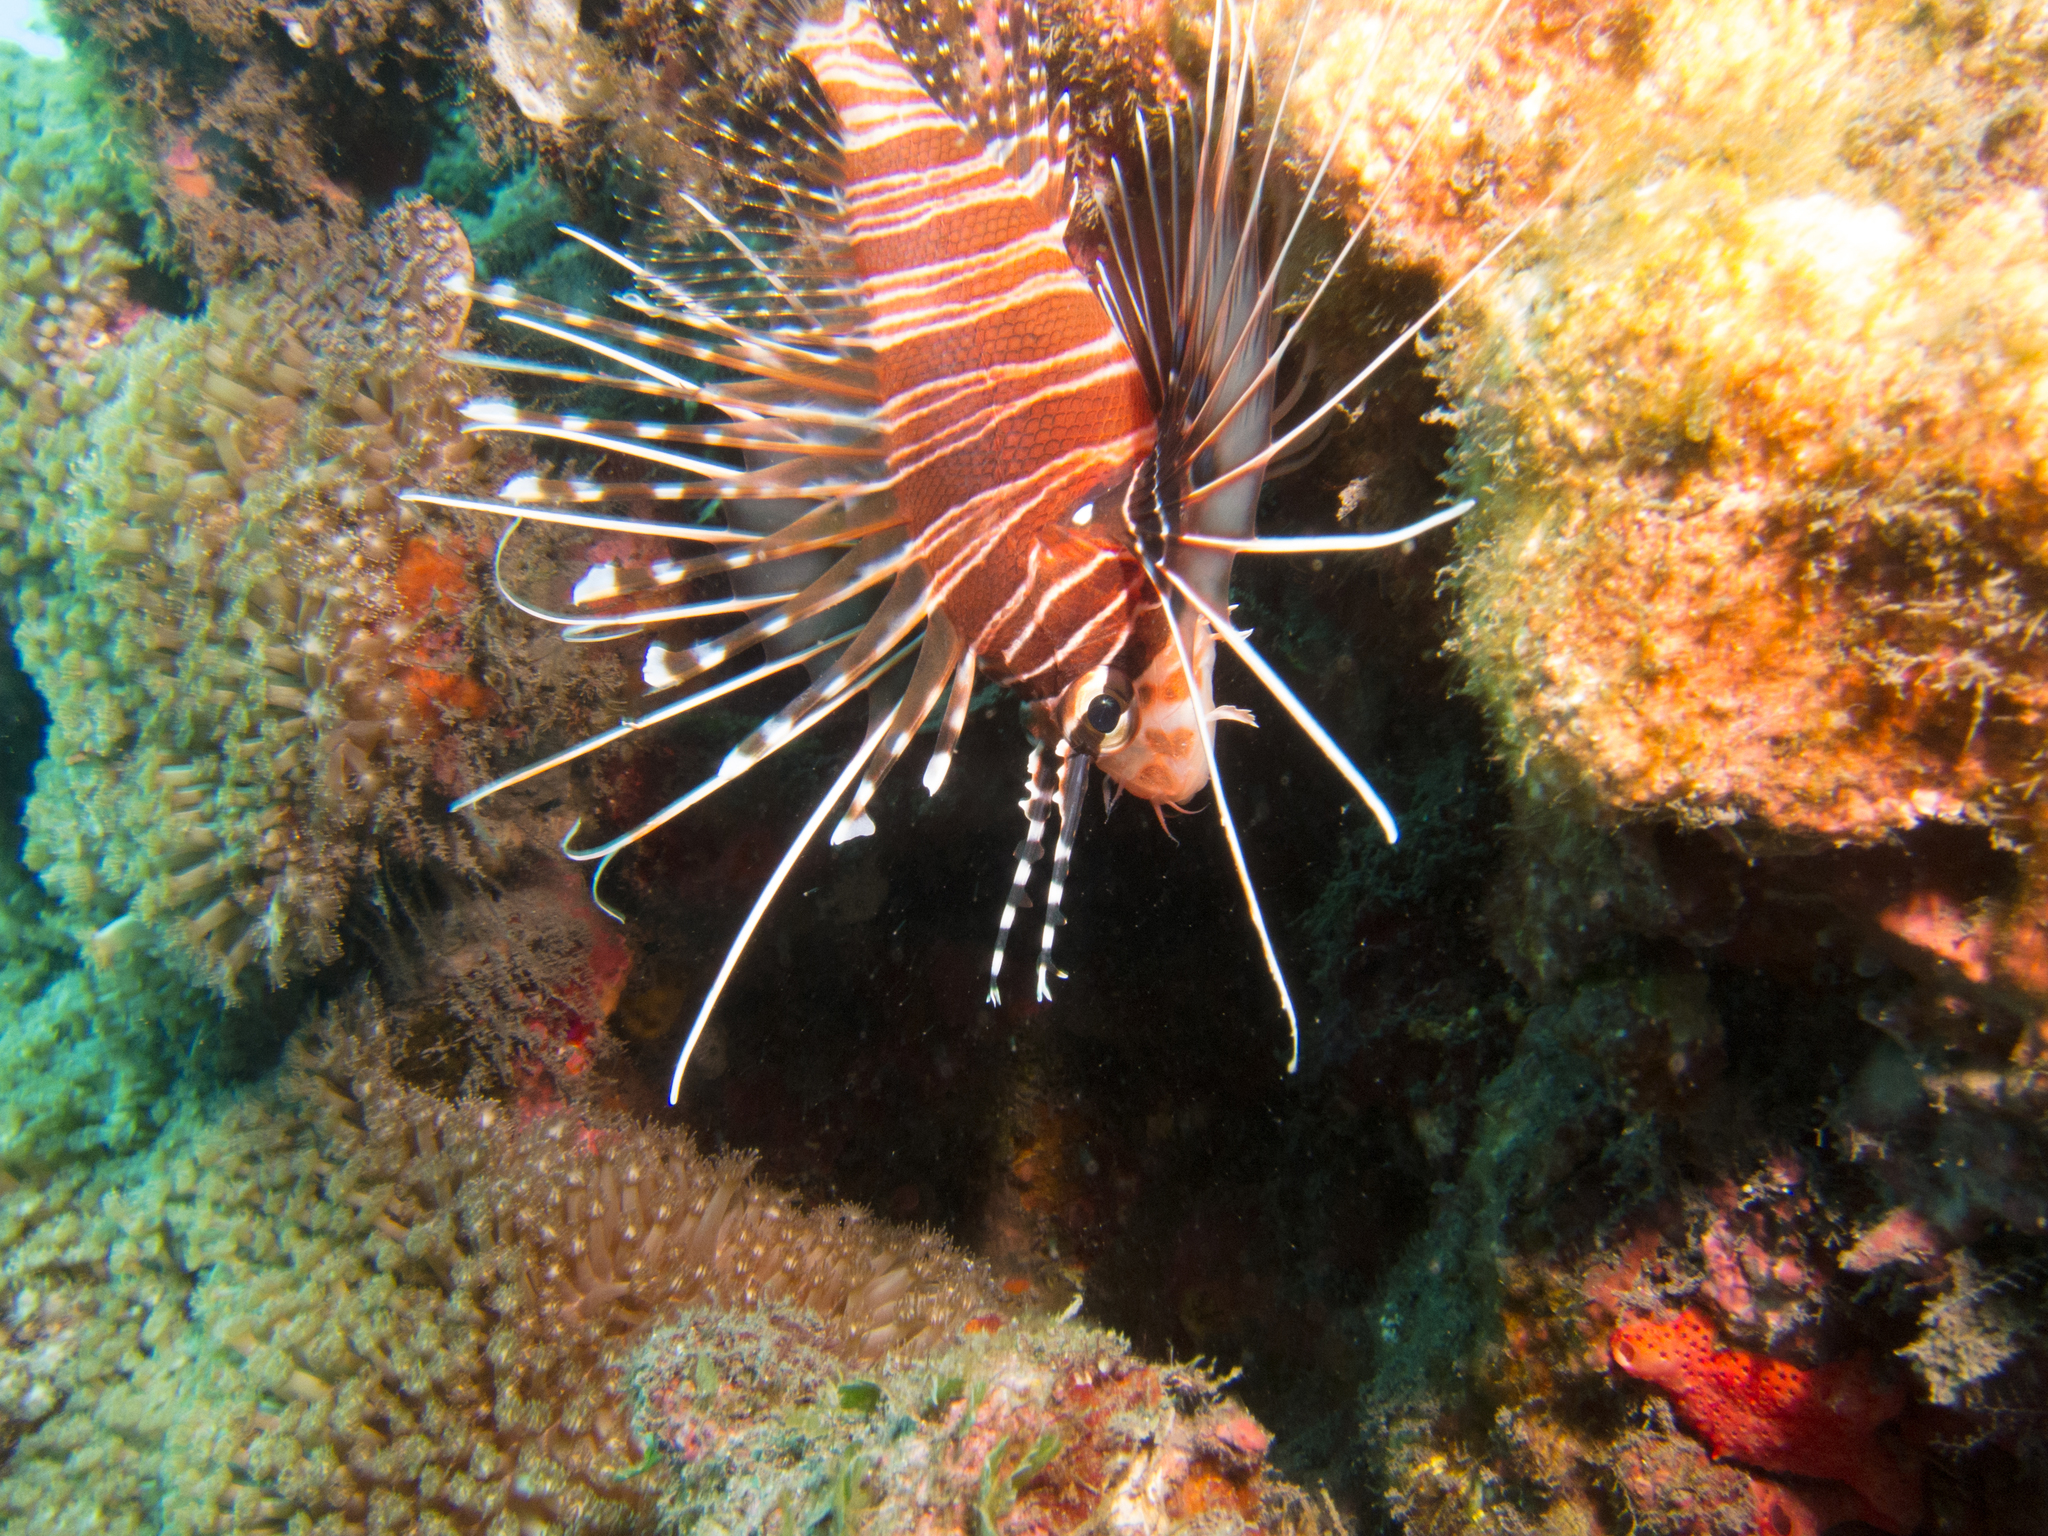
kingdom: Animalia
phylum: Chordata
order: Scorpaeniformes
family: Scorpaenidae
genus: Pterois
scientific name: Pterois antennata
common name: Spotfin lionfish
